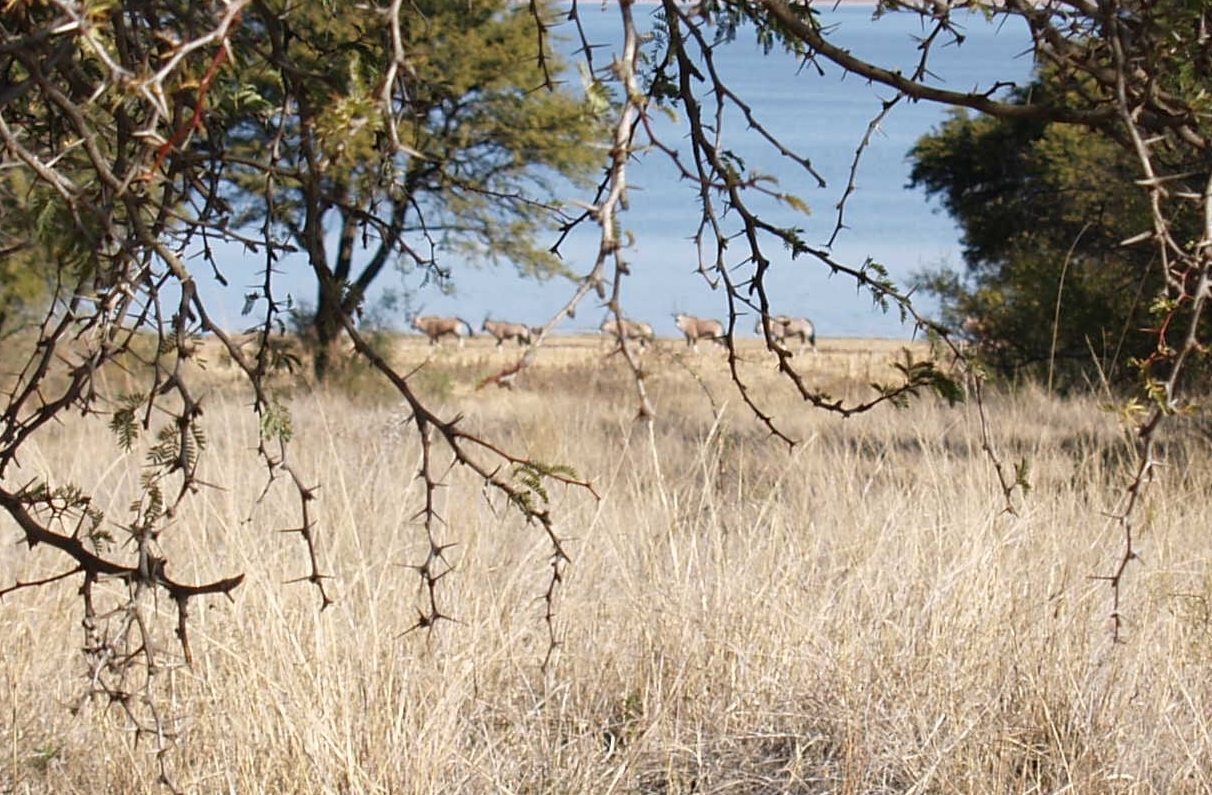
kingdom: Animalia
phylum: Chordata
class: Mammalia
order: Artiodactyla
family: Bovidae
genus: Oryx
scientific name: Oryx gazella
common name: Gemsbok
